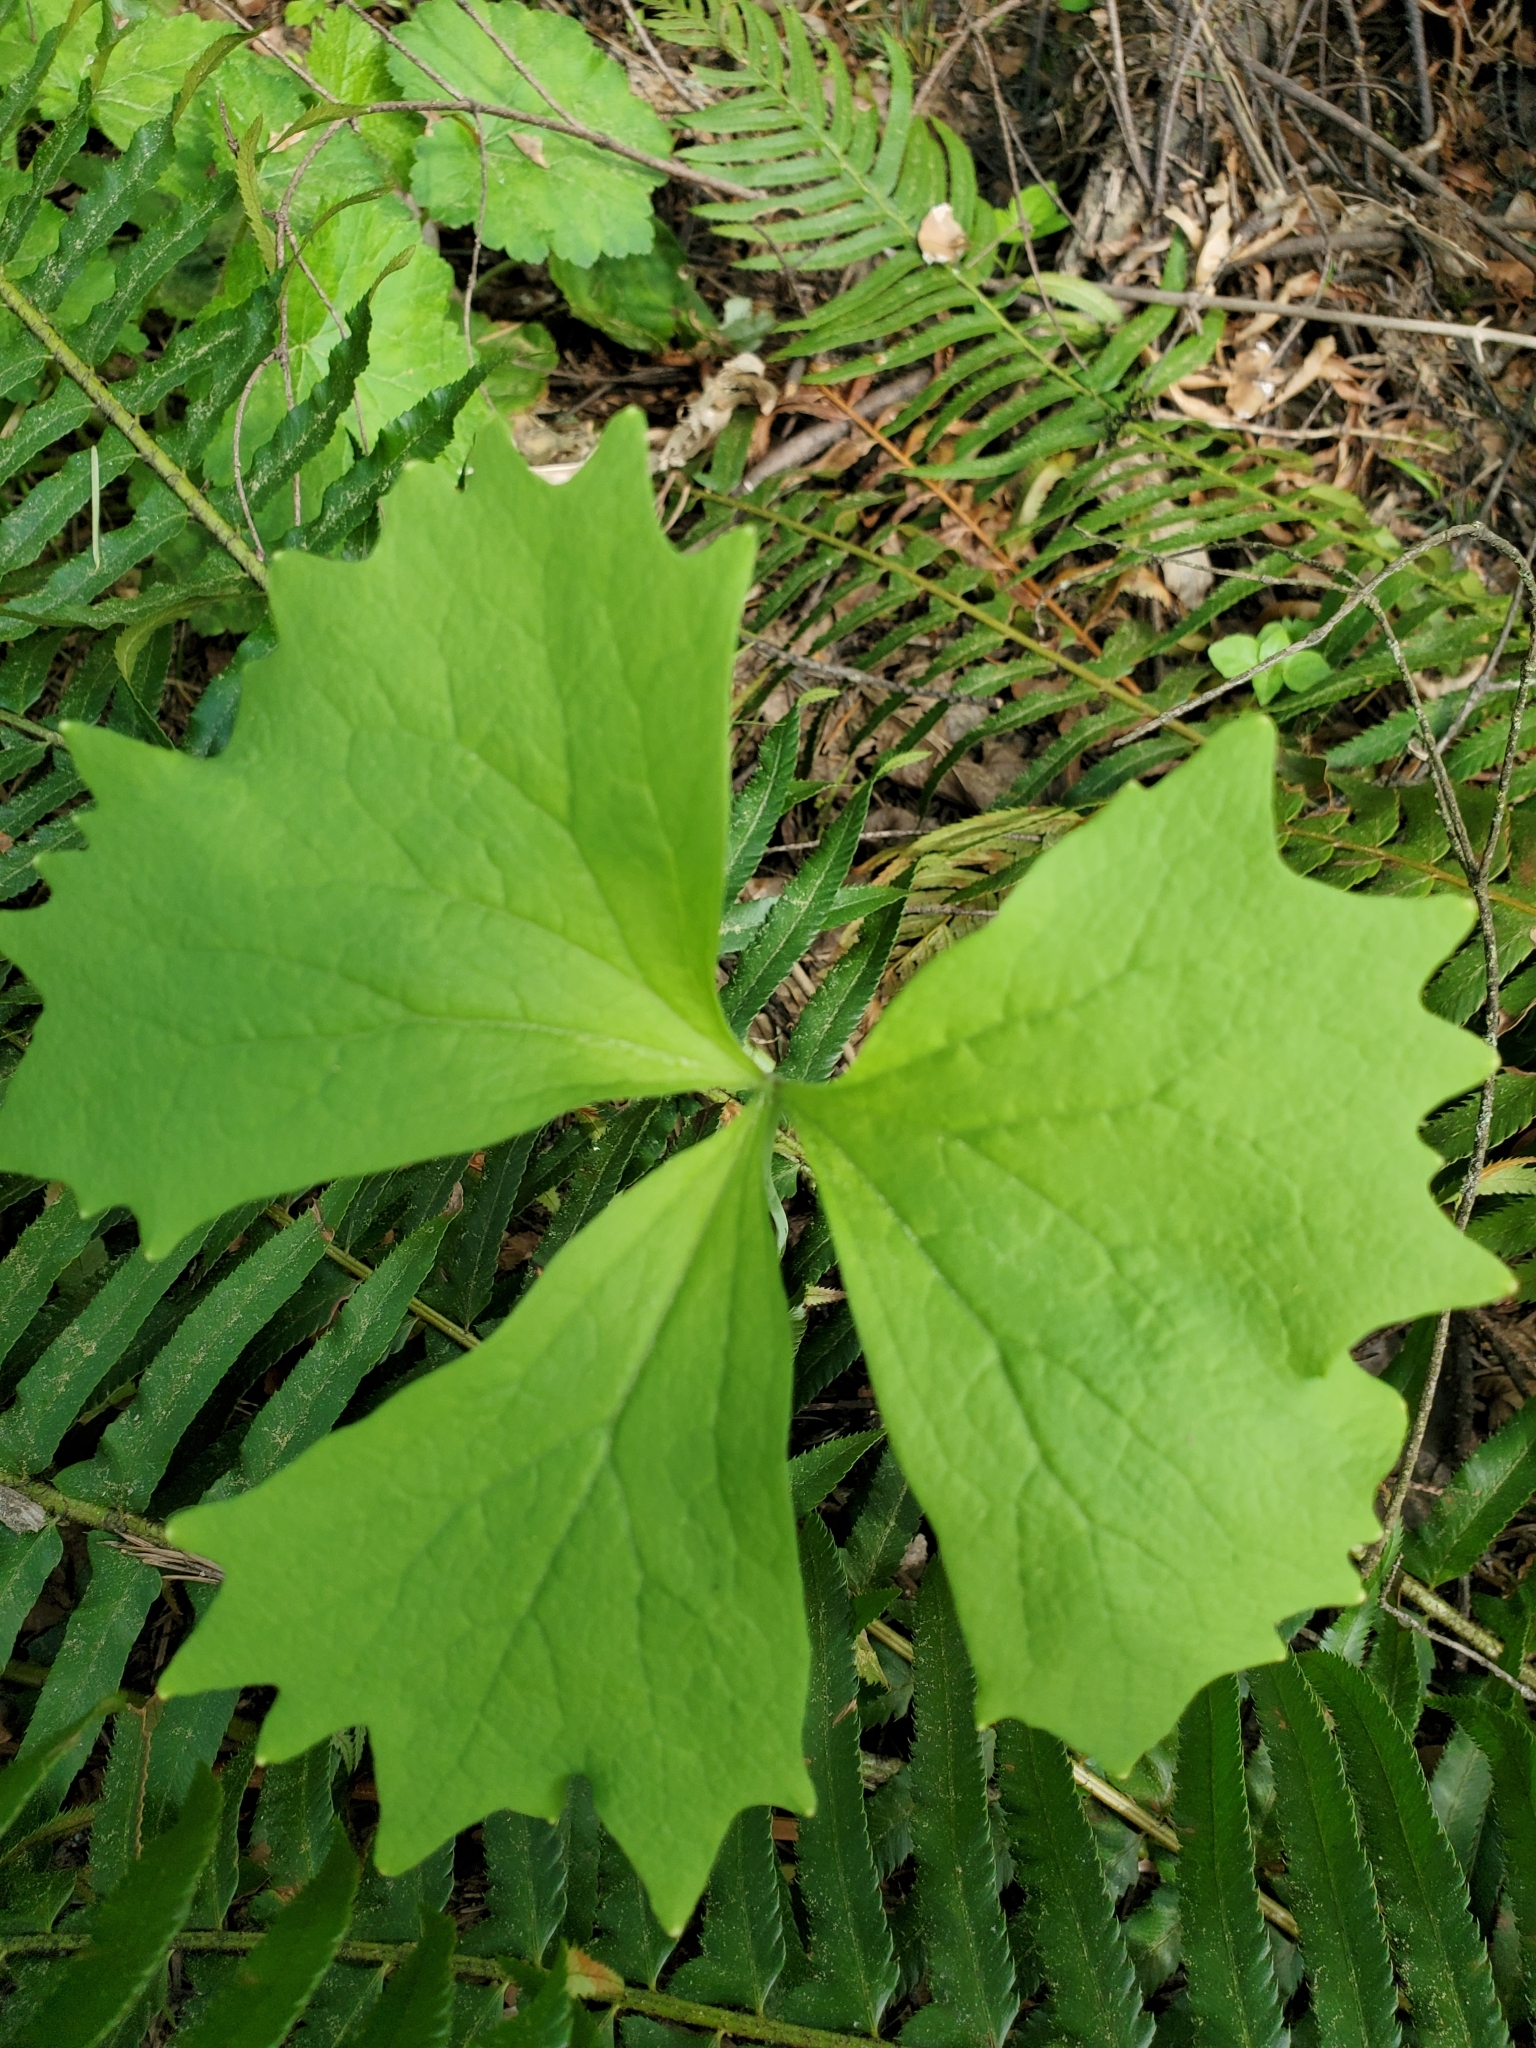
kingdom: Plantae
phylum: Tracheophyta
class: Magnoliopsida
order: Ranunculales
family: Berberidaceae
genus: Achlys
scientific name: Achlys triphylla
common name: Vanilla-leaf
